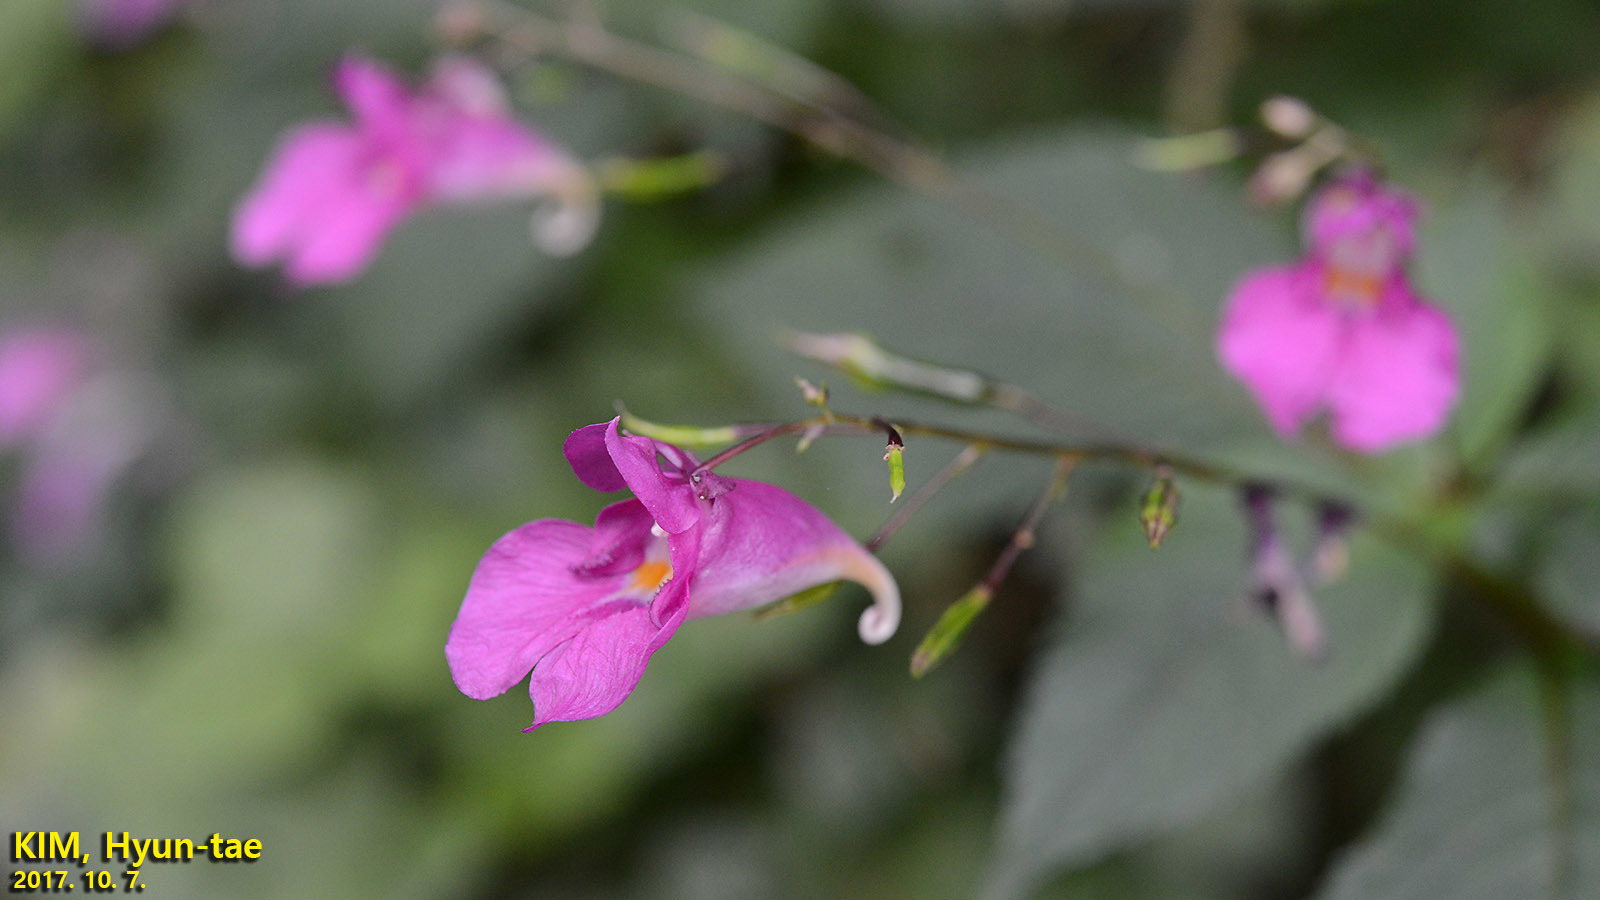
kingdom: Plantae
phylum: Tracheophyta
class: Magnoliopsida
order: Ericales
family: Balsaminaceae
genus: Impatiens
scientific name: Impatiens textorii
